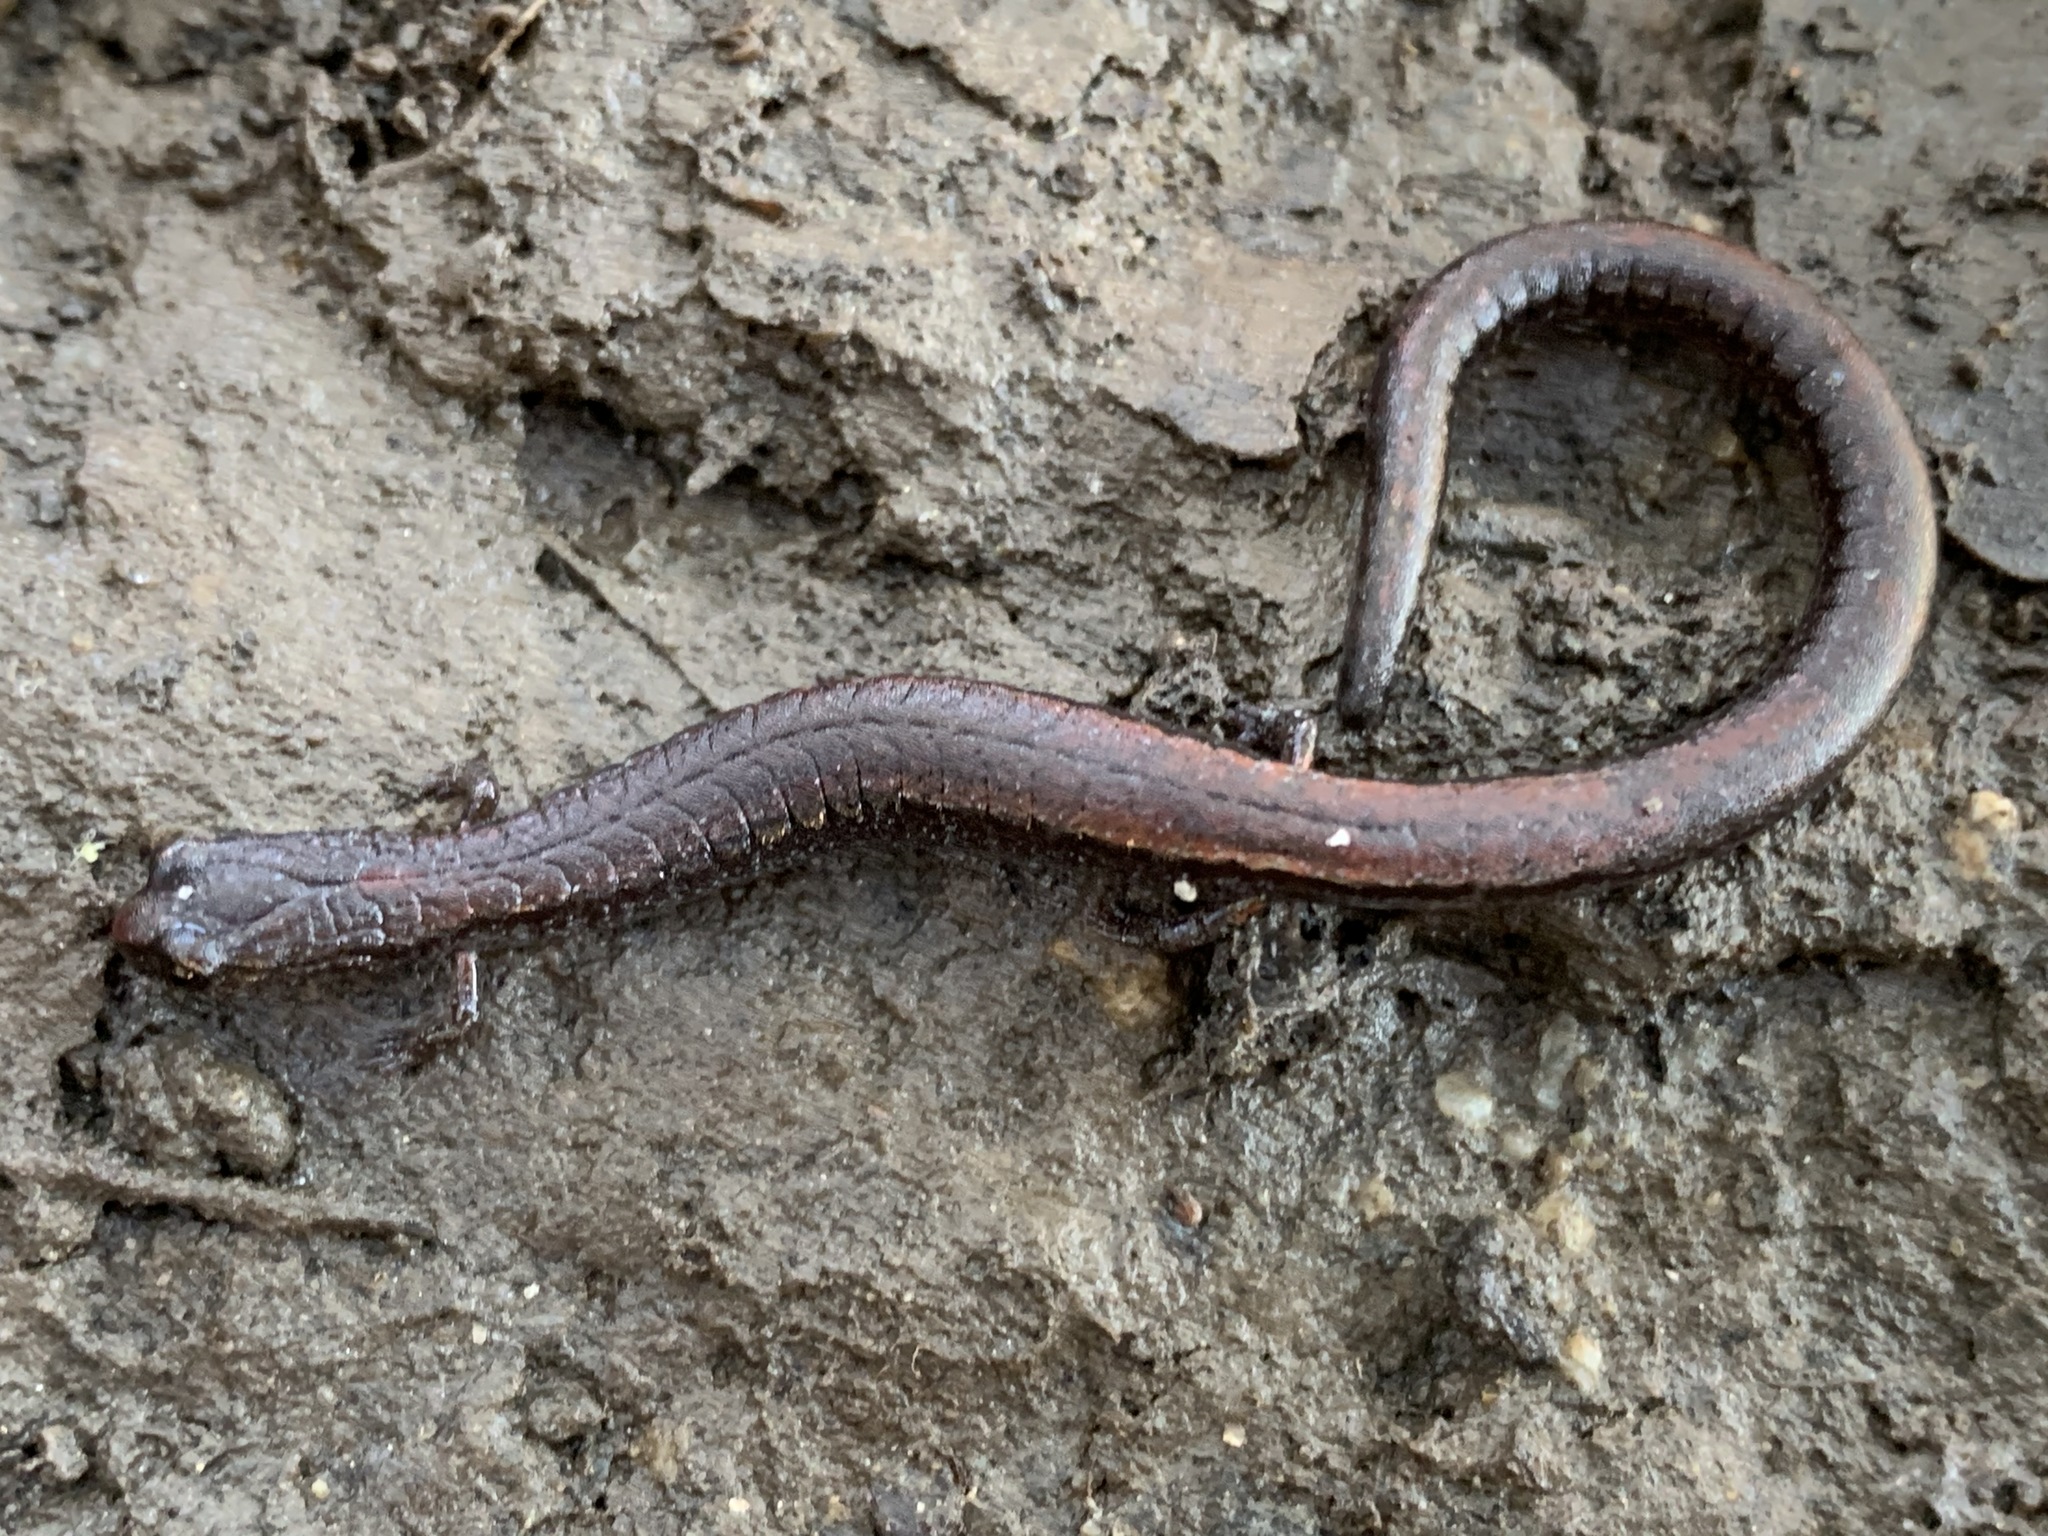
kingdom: Animalia
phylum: Chordata
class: Amphibia
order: Caudata
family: Plethodontidae
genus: Batrachoseps
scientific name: Batrachoseps attenuatus
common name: California slender salamander
